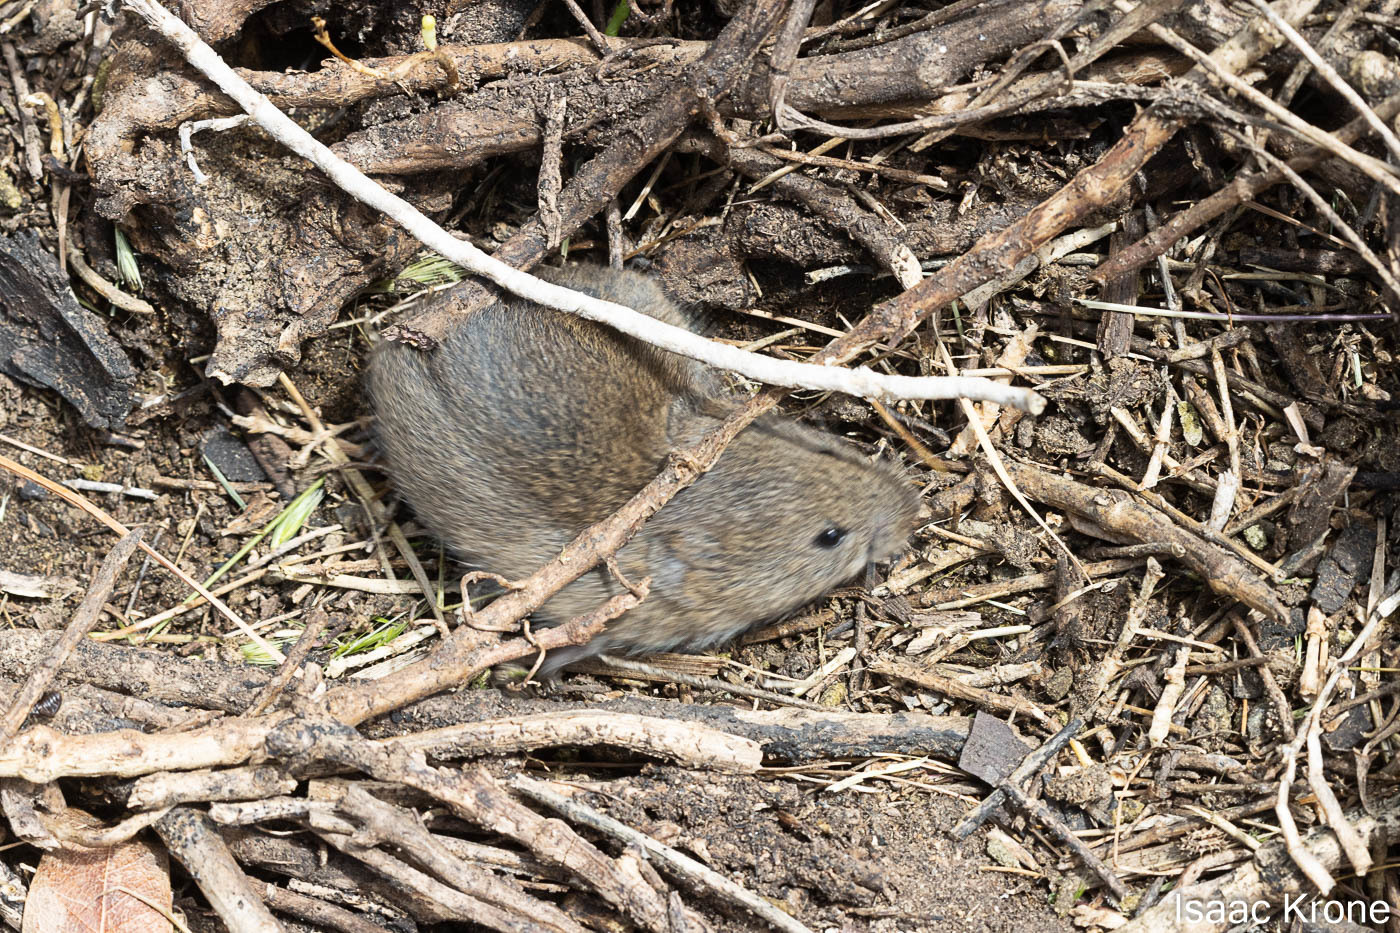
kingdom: Animalia
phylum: Chordata
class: Mammalia
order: Rodentia
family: Cricetidae
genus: Microtus
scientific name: Microtus californicus
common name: California vole
